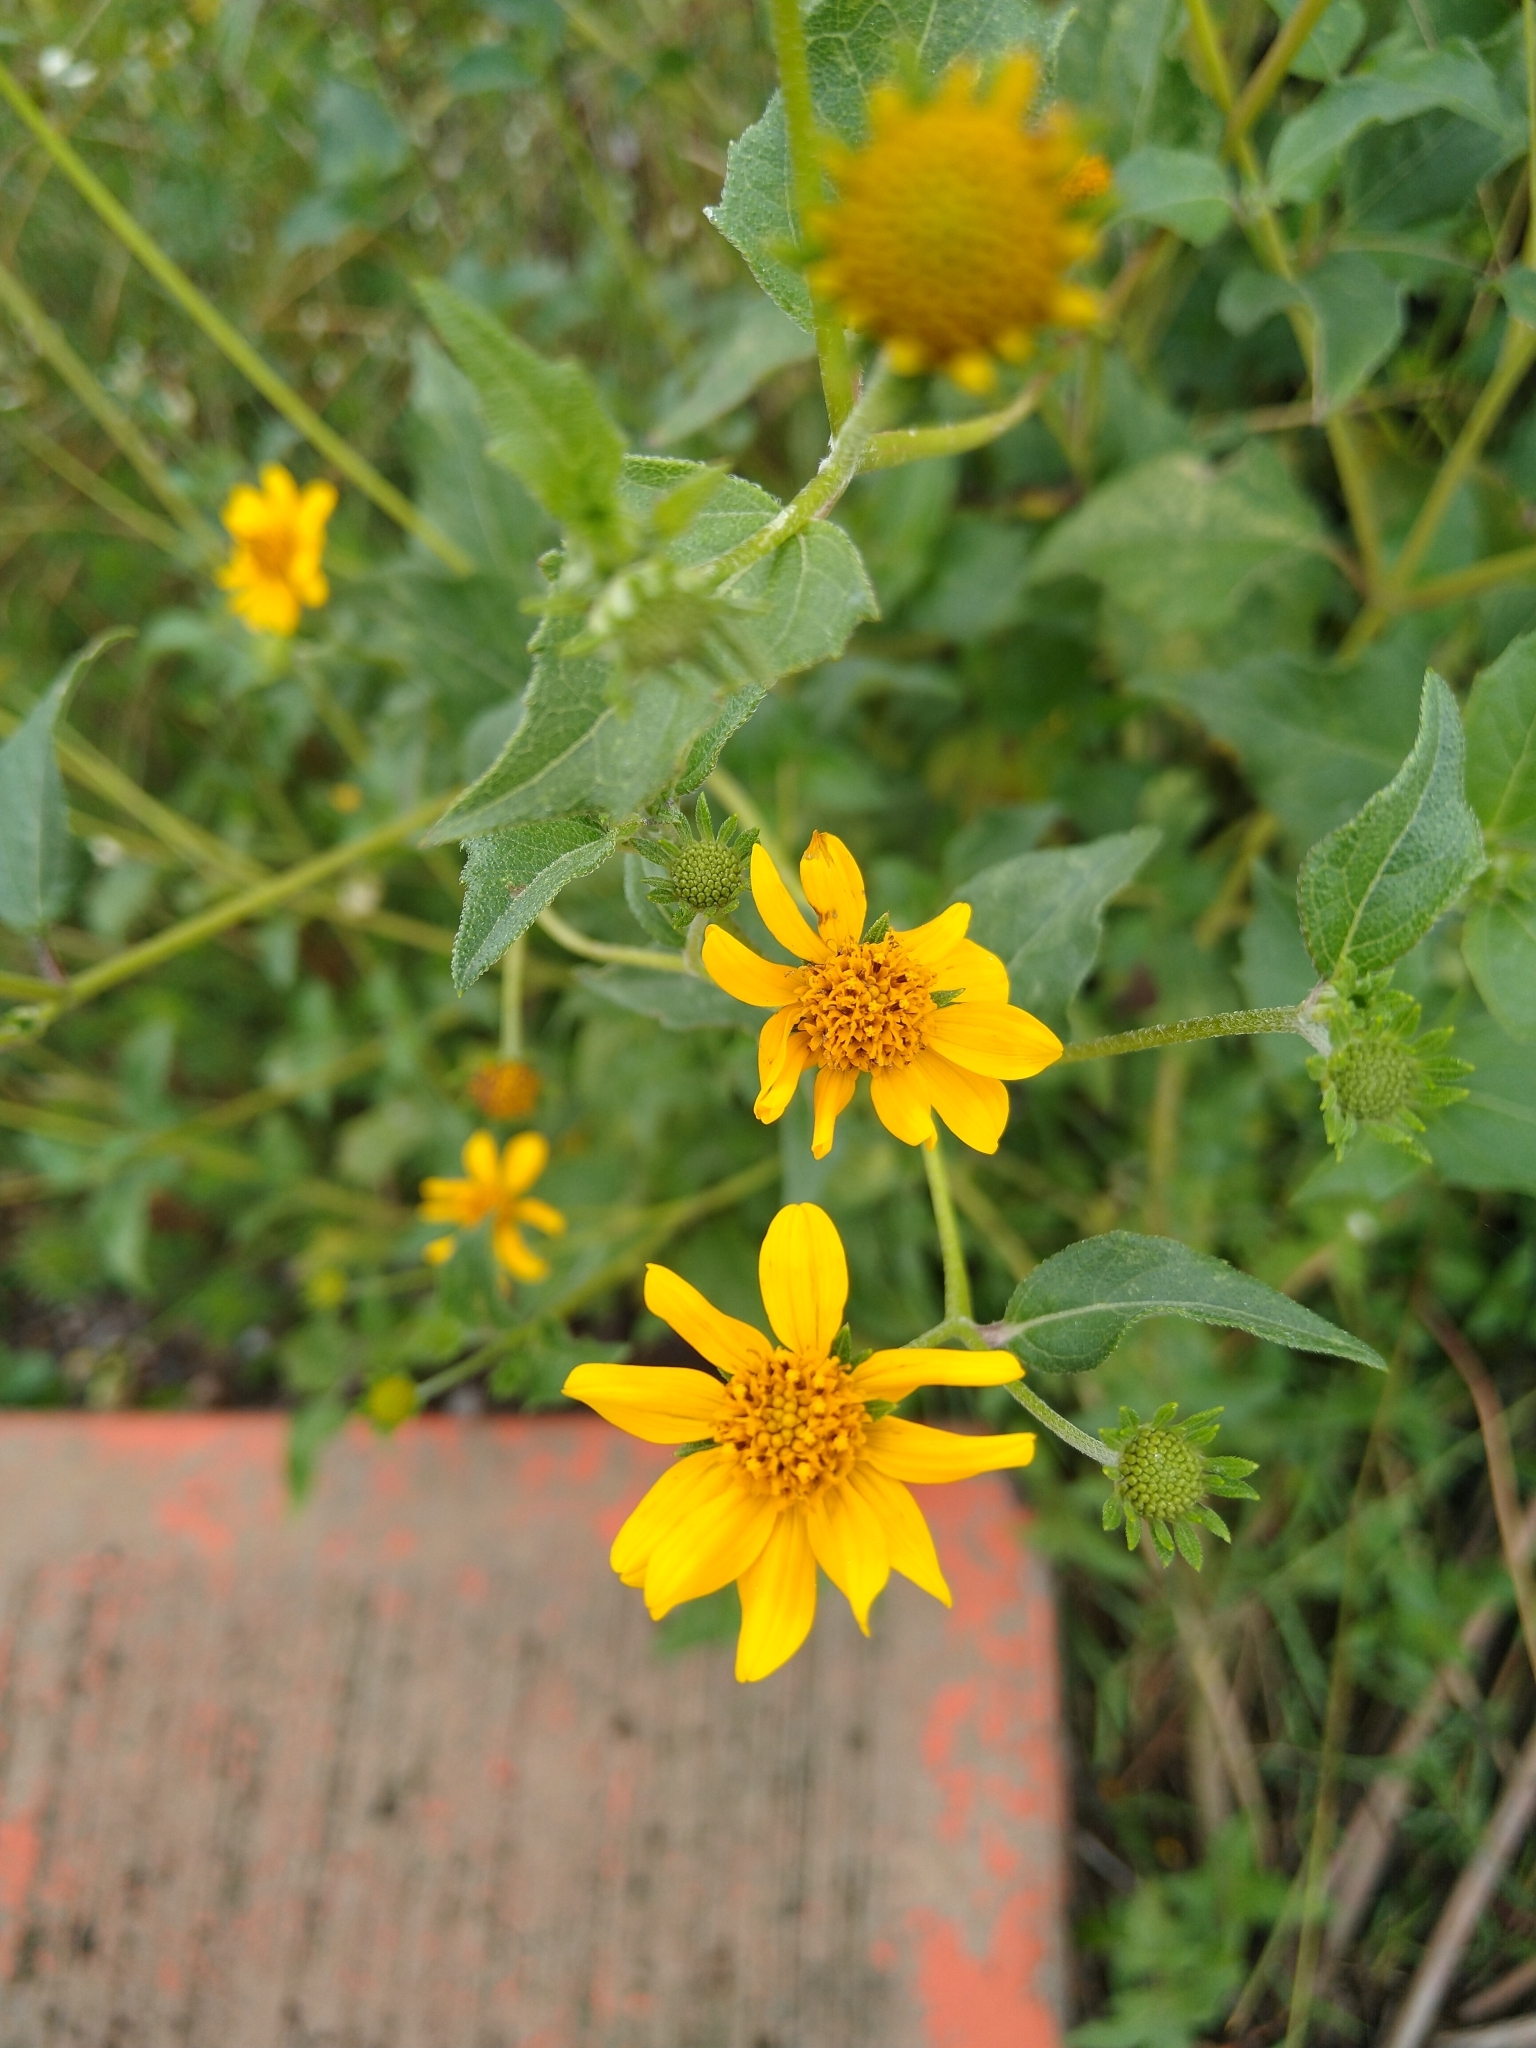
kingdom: Plantae
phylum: Tracheophyta
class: Magnoliopsida
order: Asterales
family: Asteraceae
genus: Viguiera
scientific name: Viguiera dentata
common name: Toothleaf
